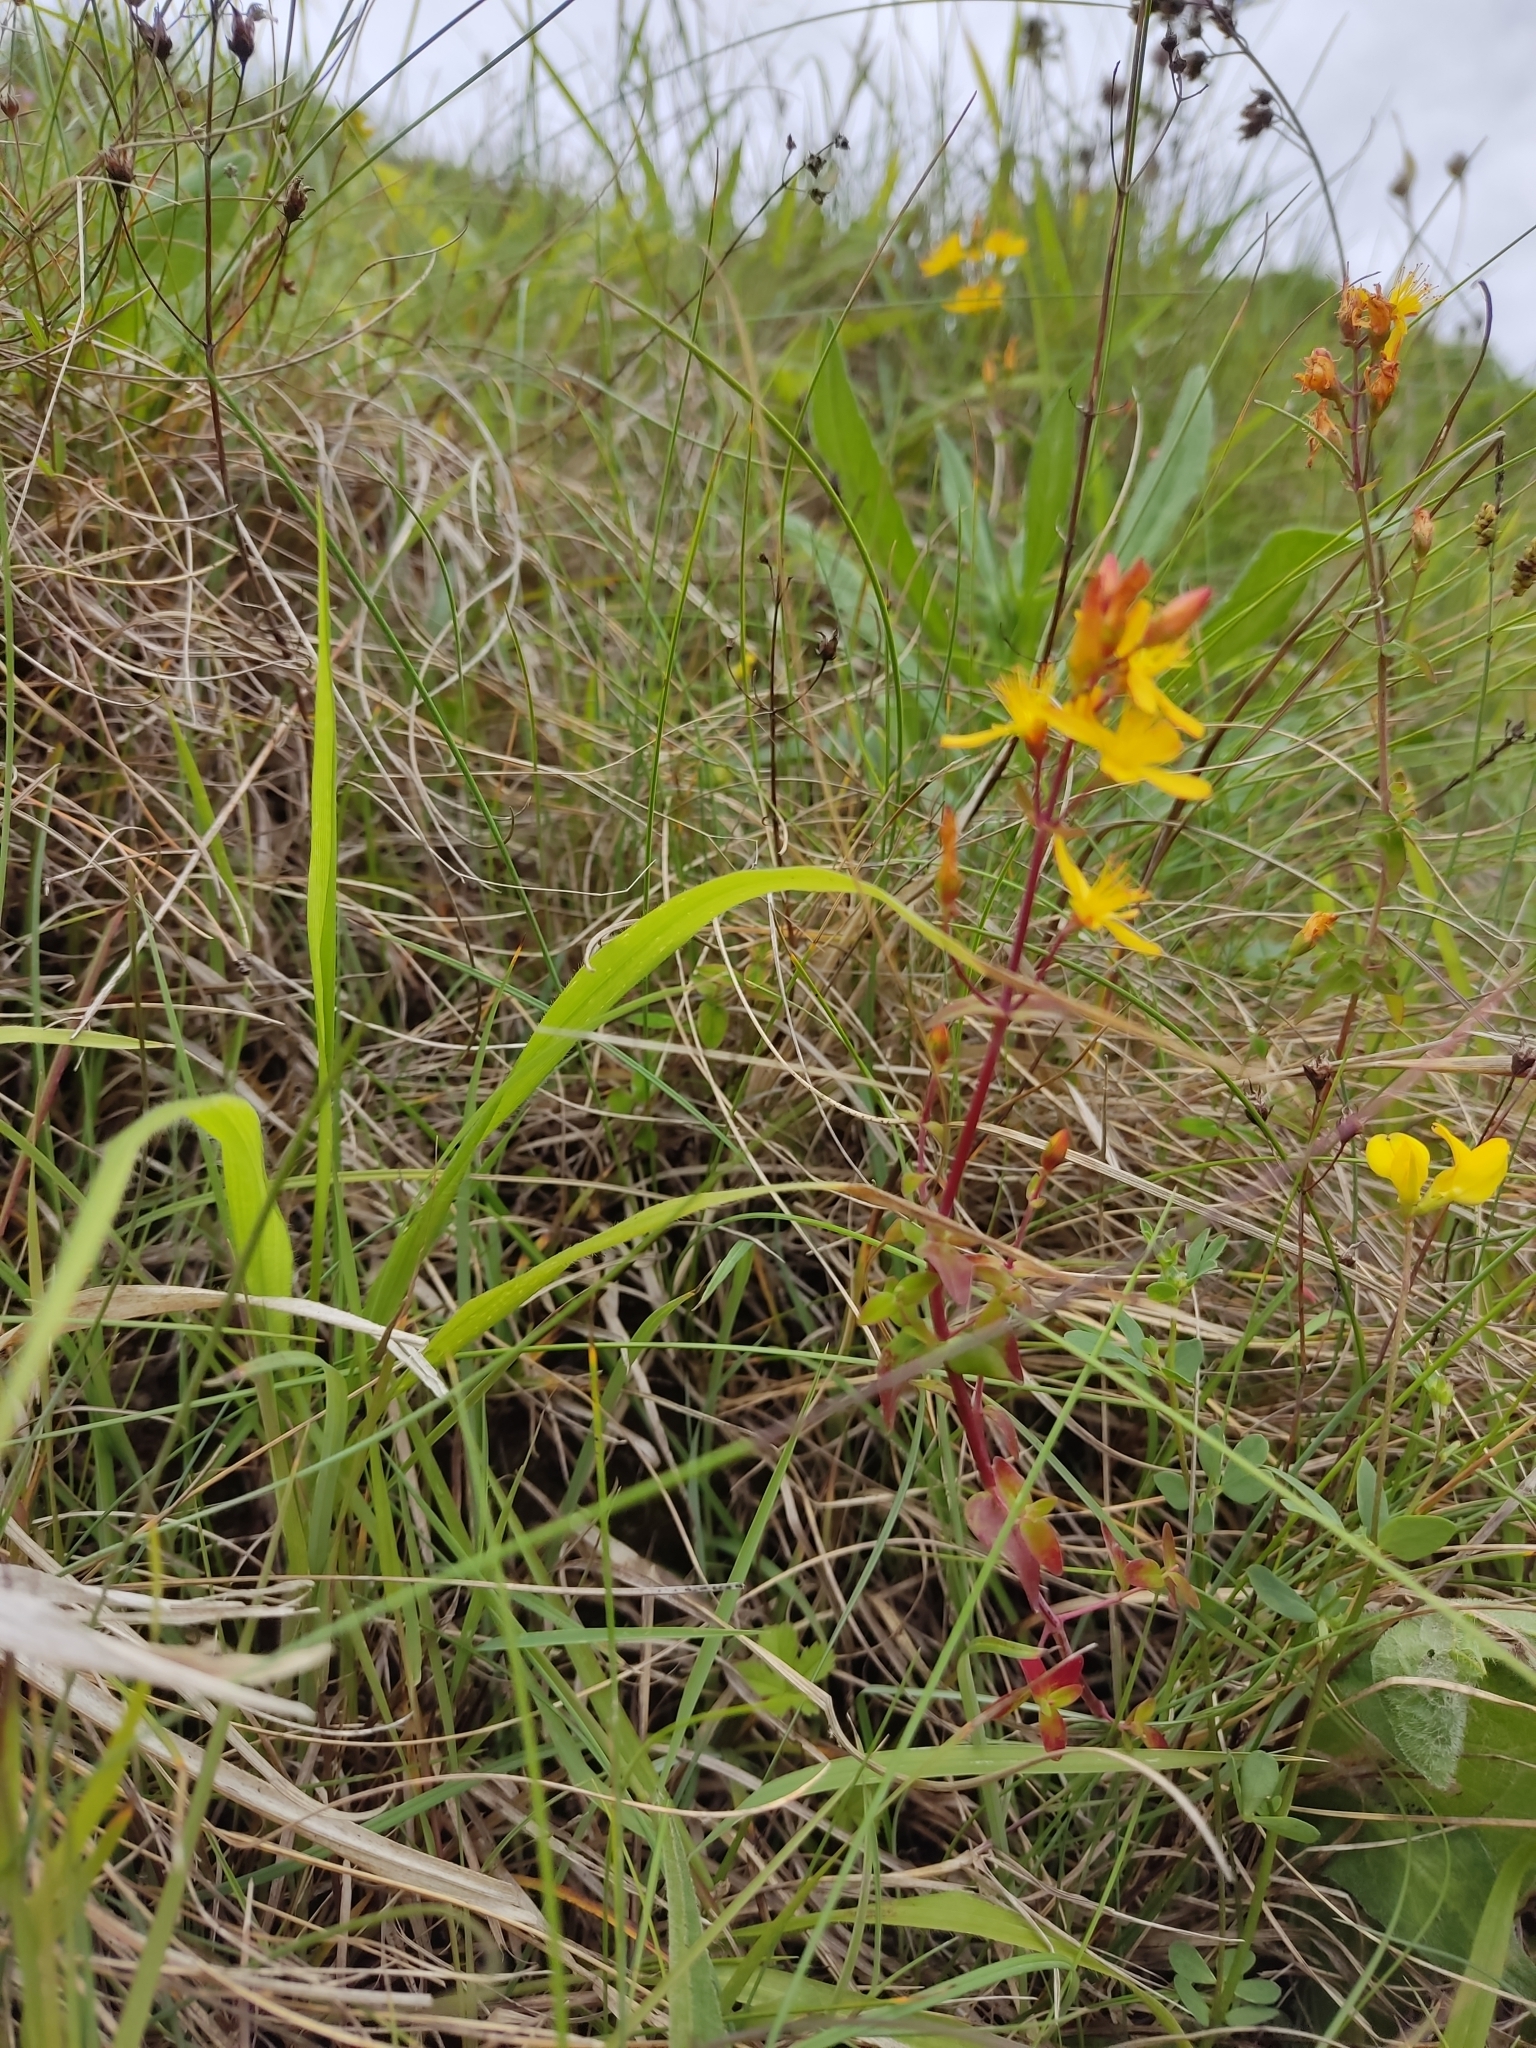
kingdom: Plantae
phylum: Tracheophyta
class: Magnoliopsida
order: Malpighiales
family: Hypericaceae
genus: Hypericum
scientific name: Hypericum pulchrum
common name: Slender st. john's-wort
